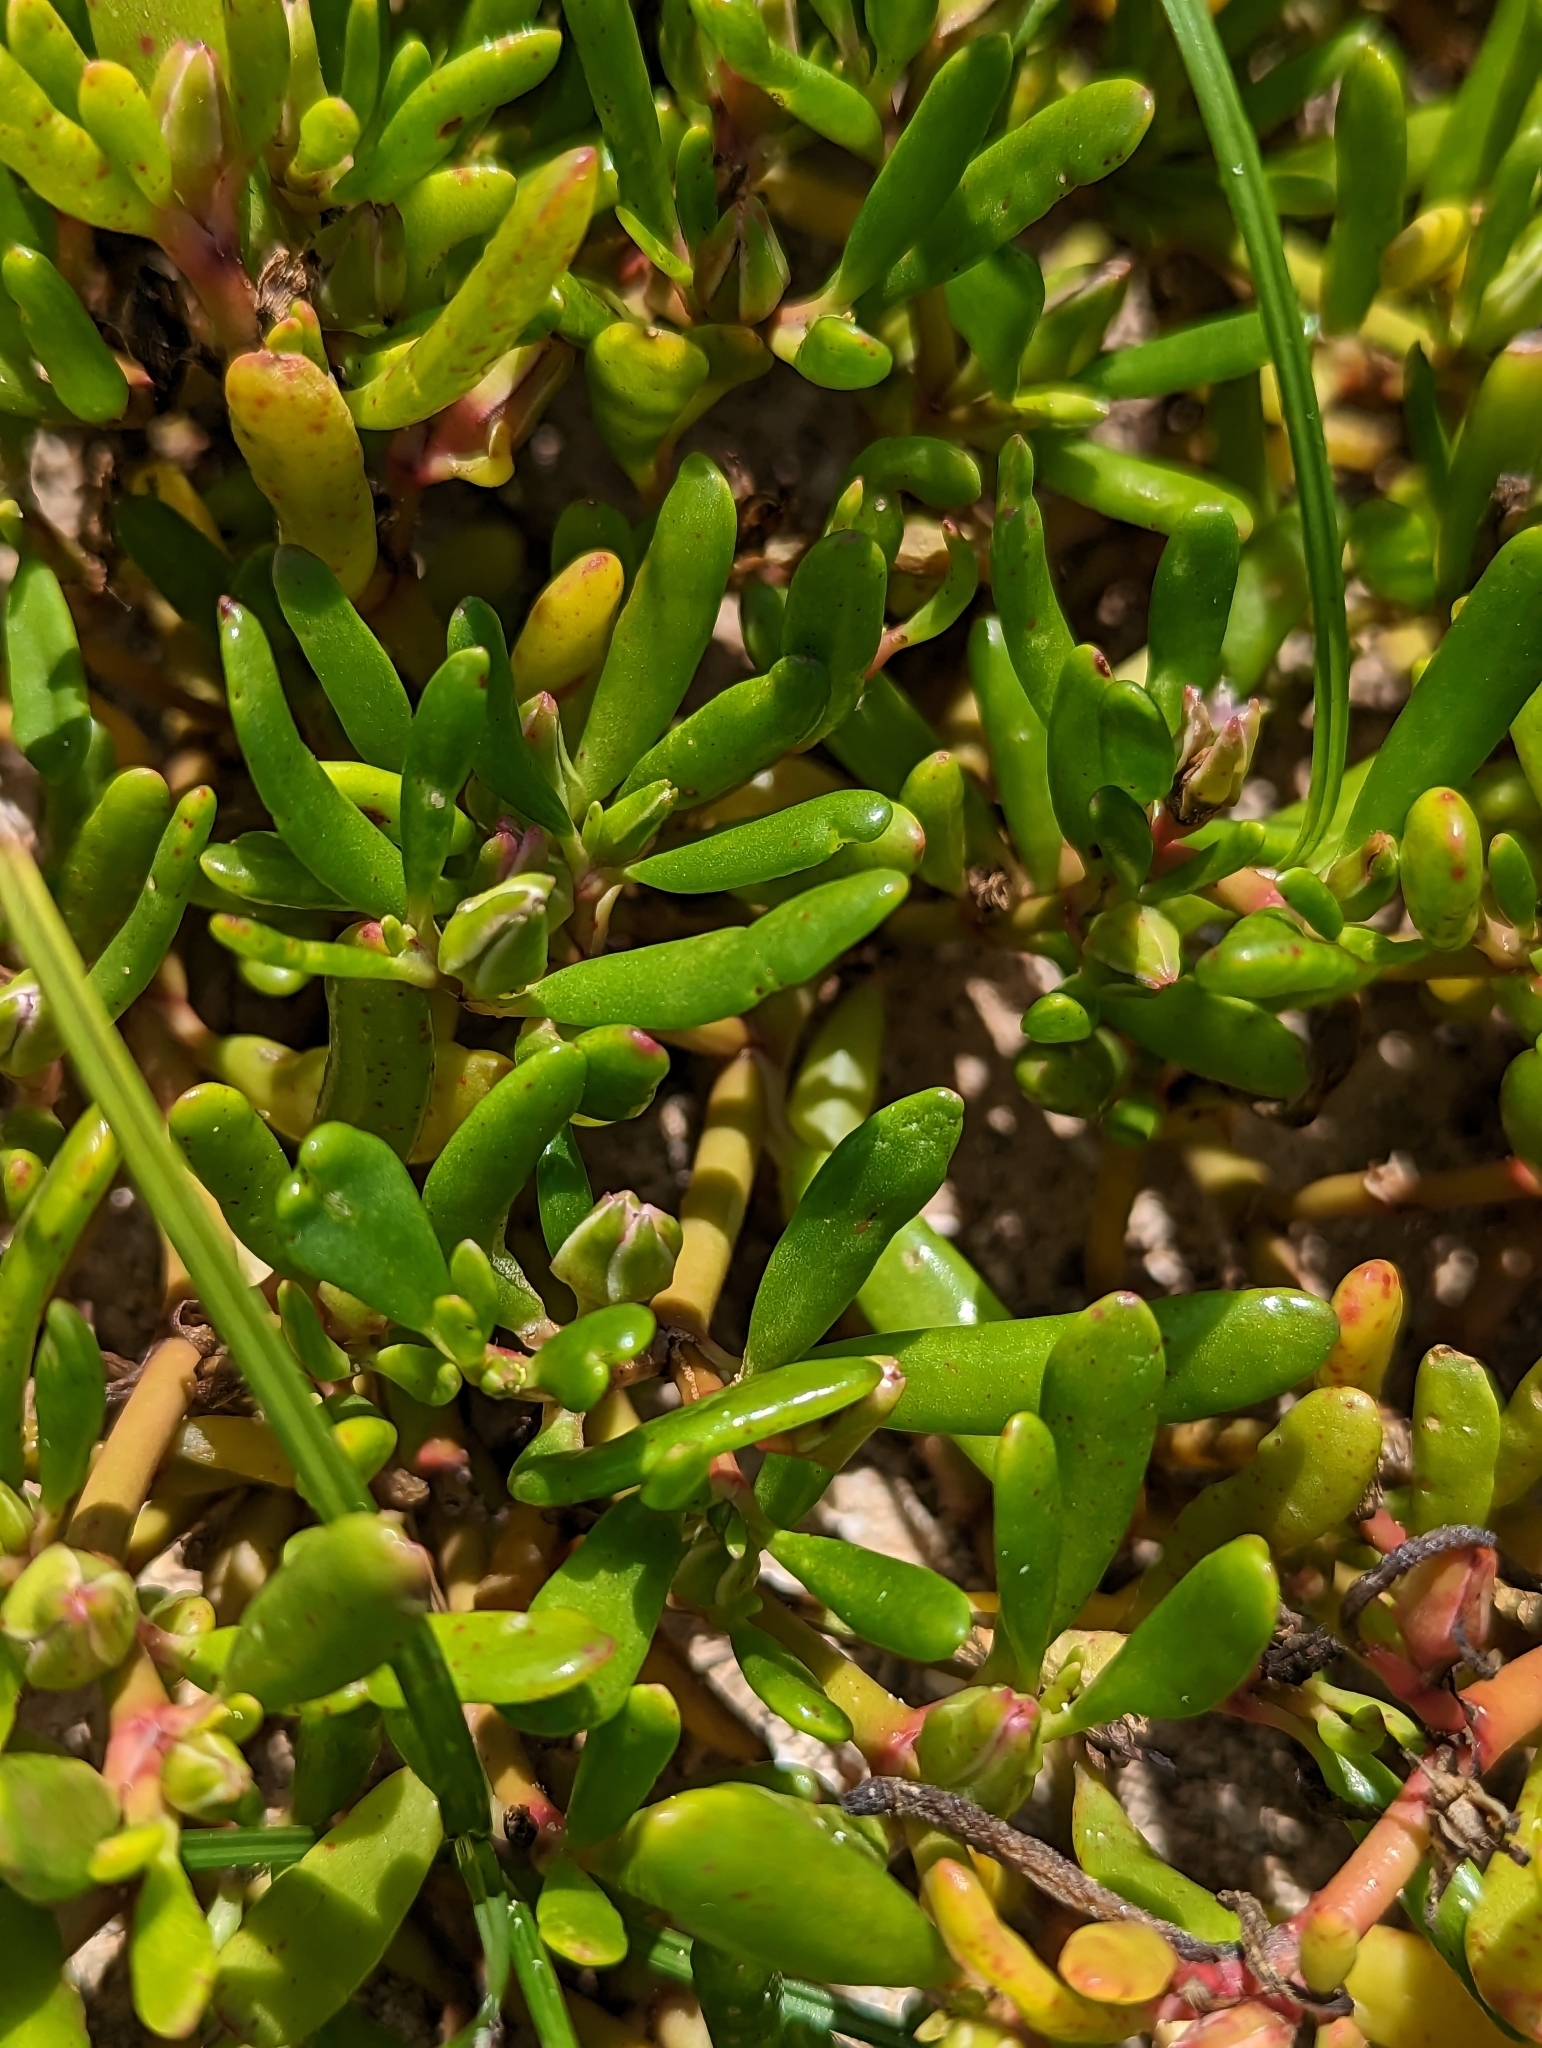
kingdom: Plantae
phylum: Tracheophyta
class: Magnoliopsida
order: Caryophyllales
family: Aizoaceae
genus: Sesuvium
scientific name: Sesuvium portulacastrum
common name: Sea-purslane
